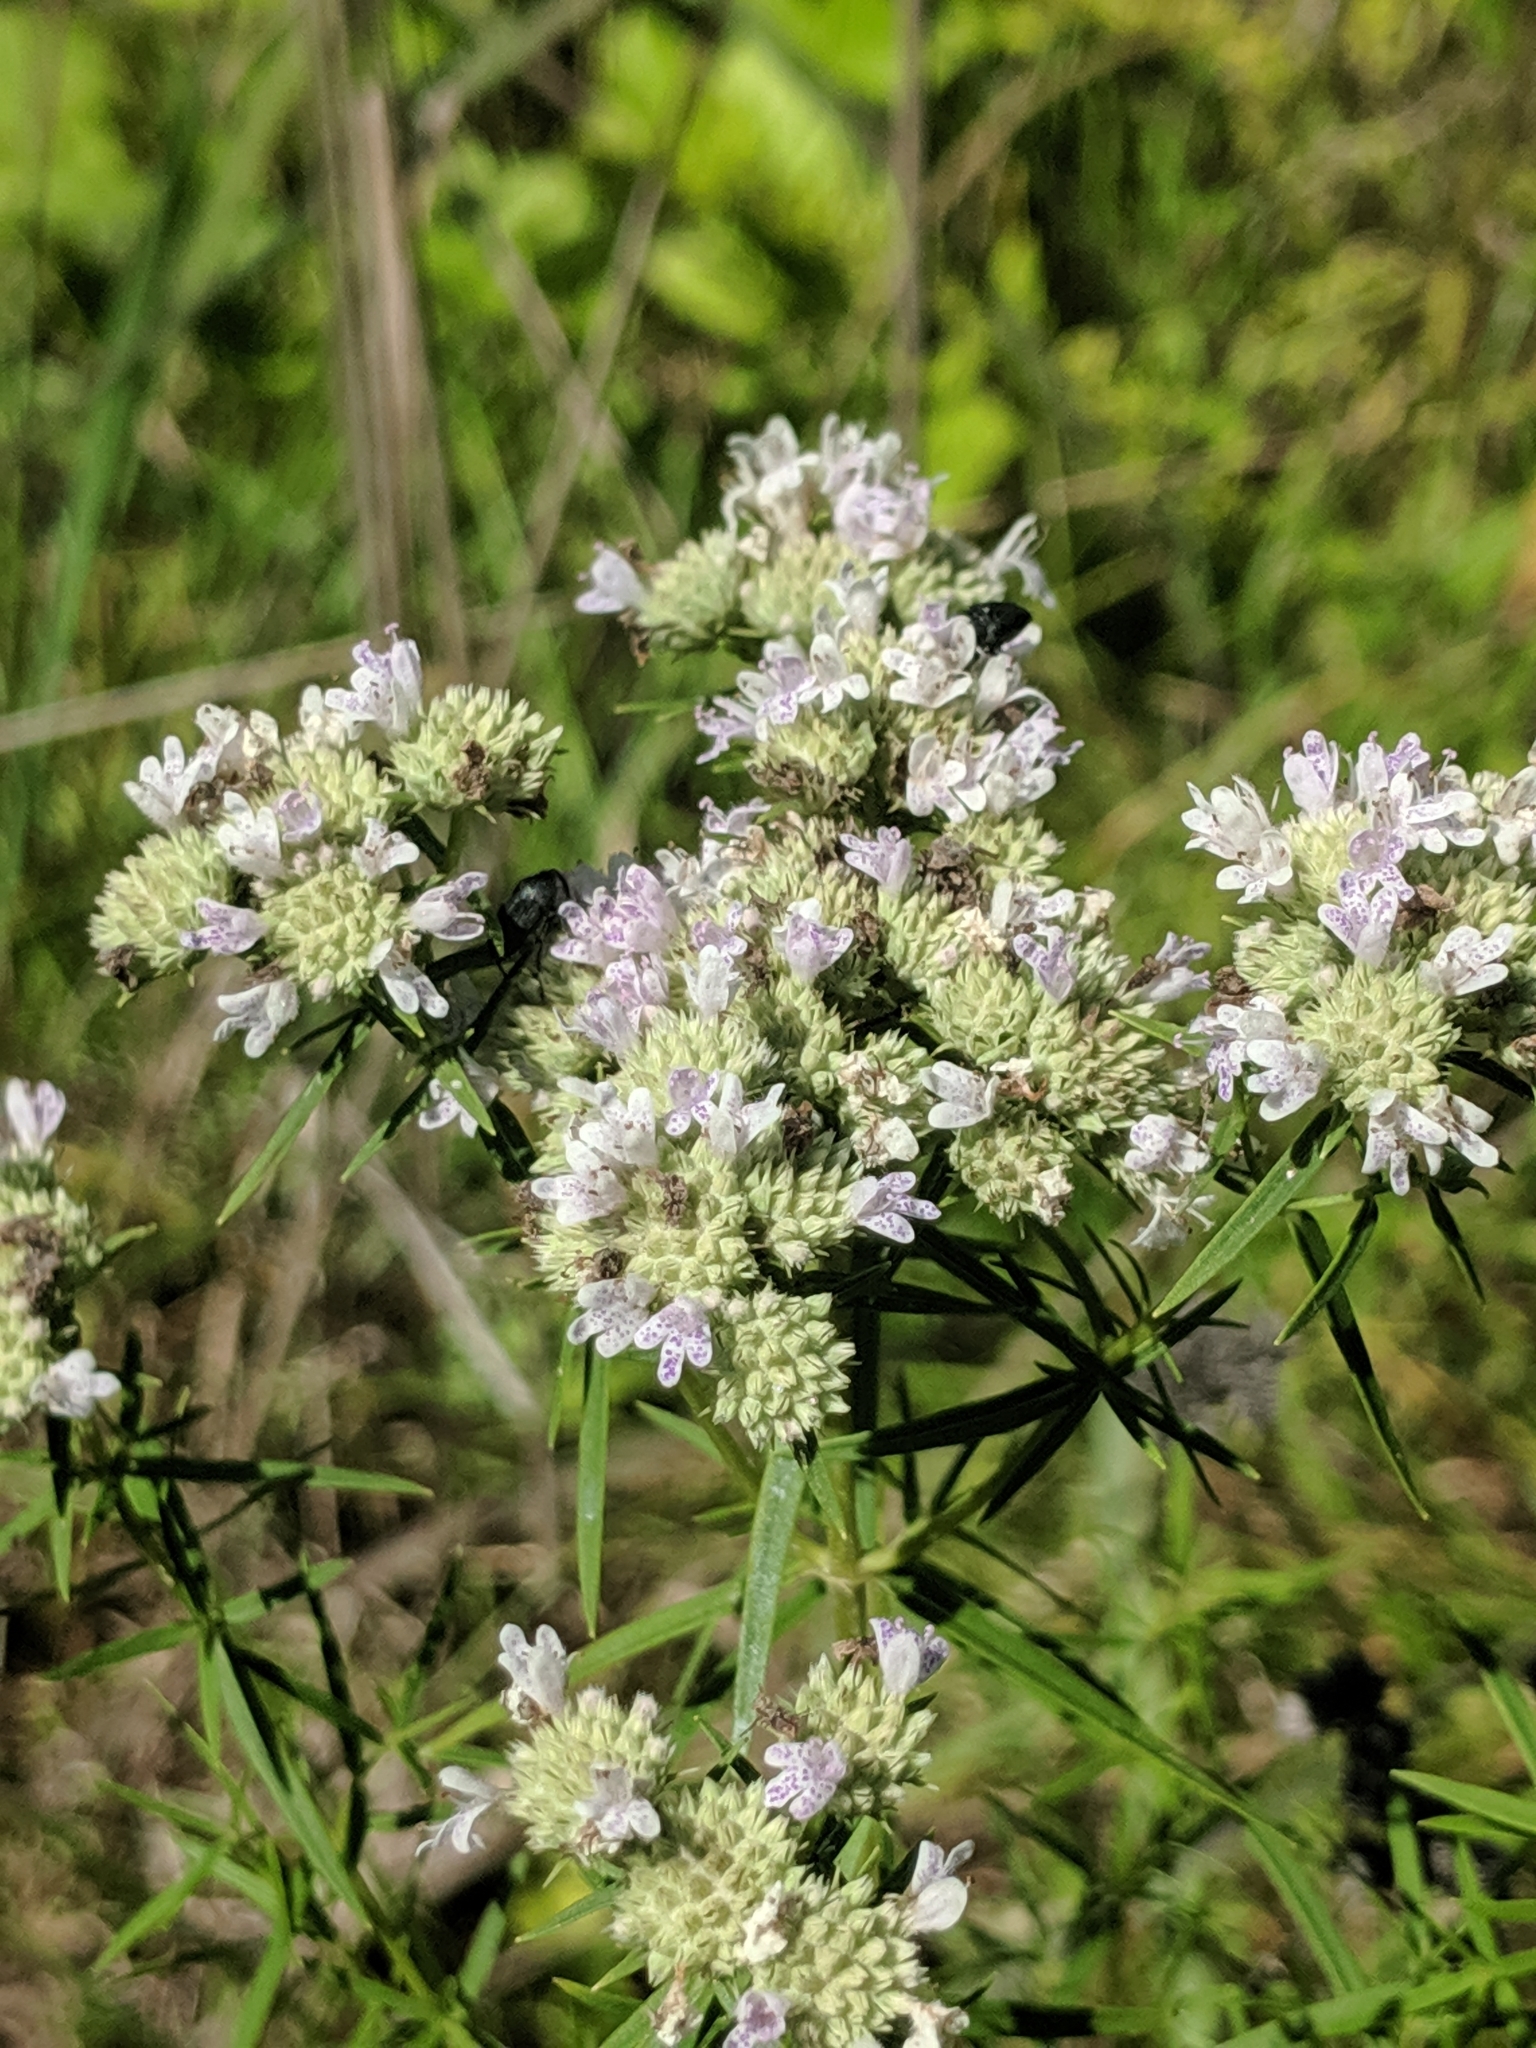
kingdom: Plantae
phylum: Tracheophyta
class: Magnoliopsida
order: Lamiales
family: Lamiaceae
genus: Pycnanthemum
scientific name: Pycnanthemum tenuifolium
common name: Narrow-leaf mountain-mint
